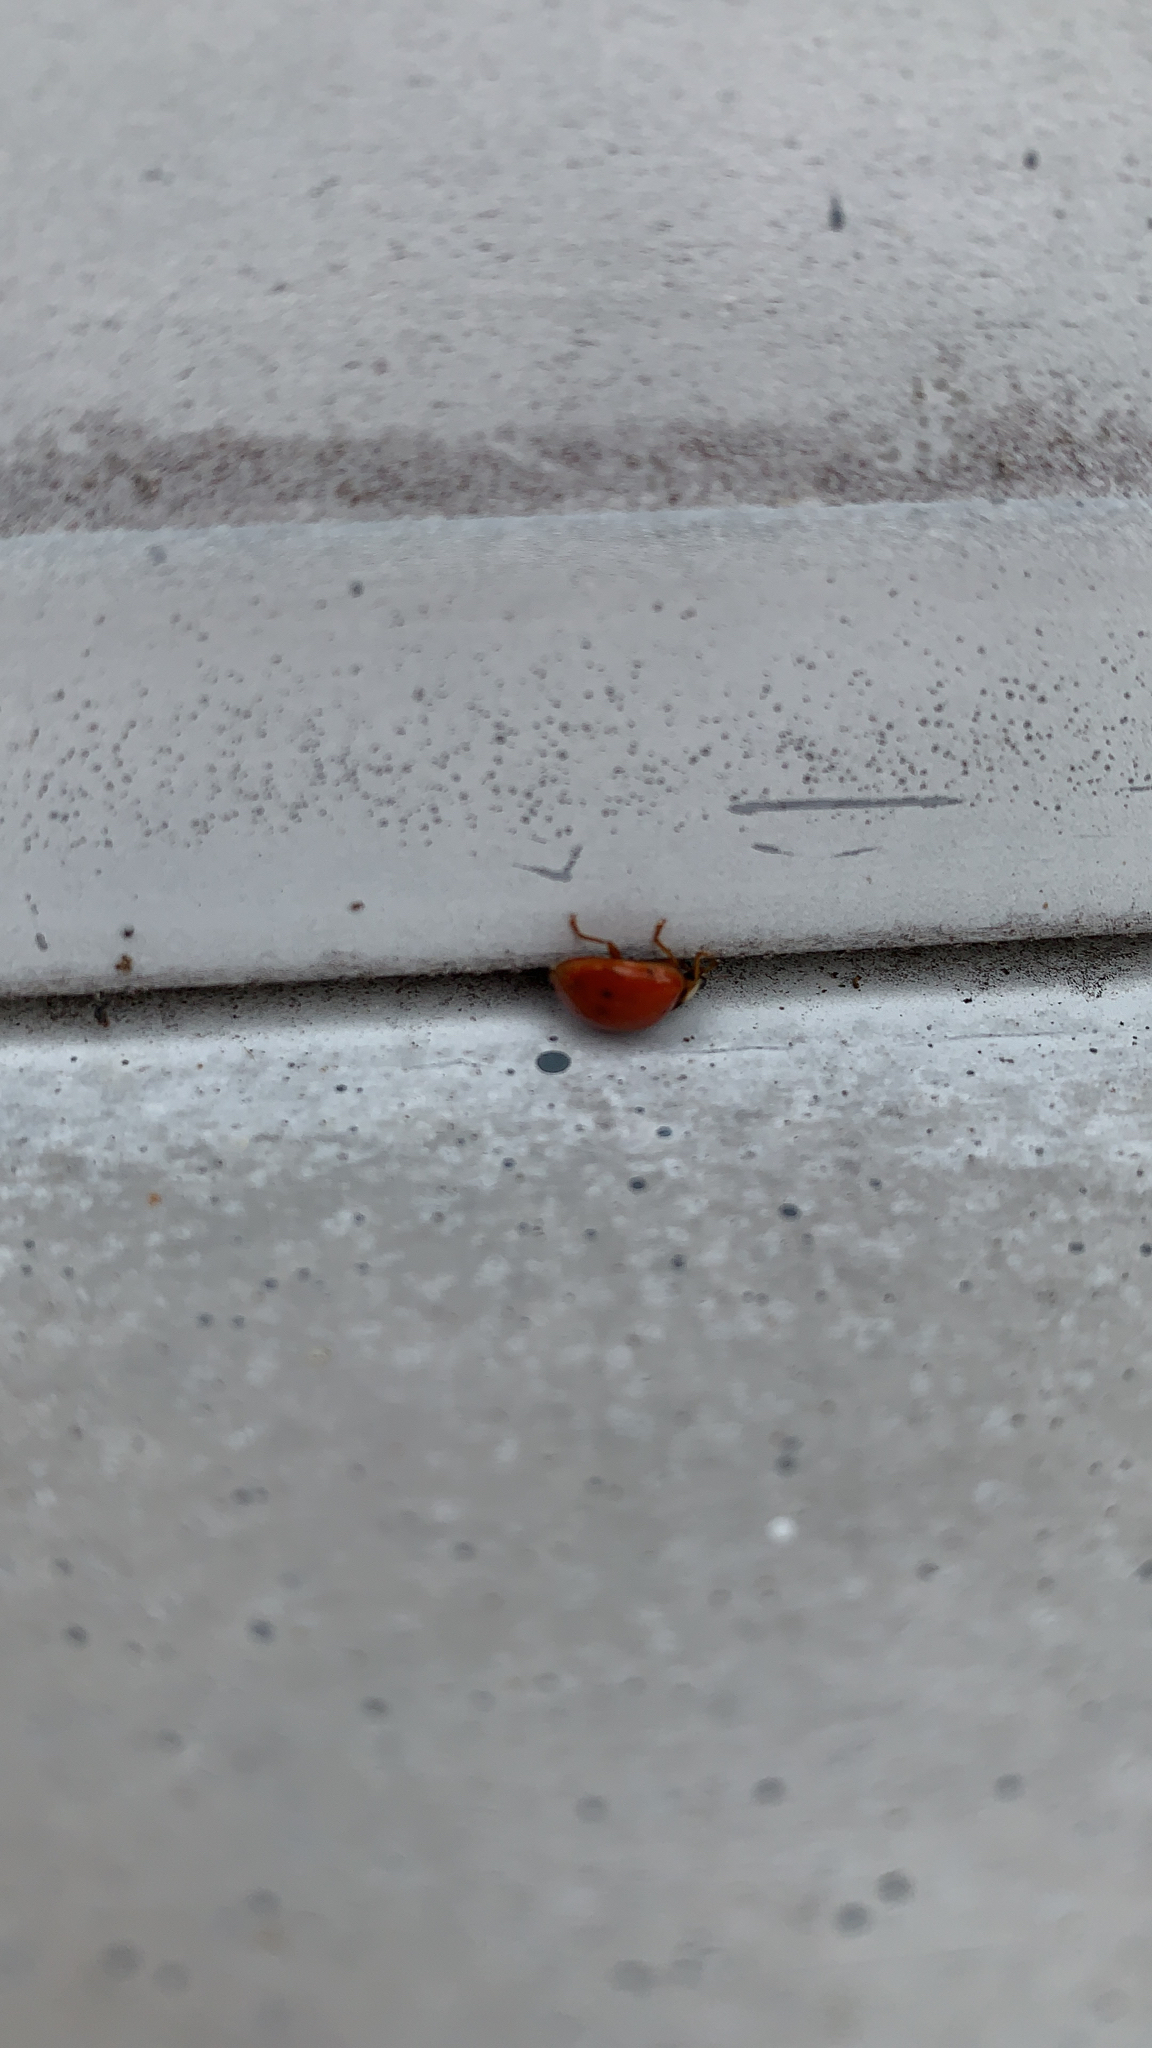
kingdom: Animalia
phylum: Arthropoda
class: Insecta
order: Coleoptera
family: Coccinellidae
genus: Harmonia
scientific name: Harmonia axyridis
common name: Harlequin ladybird
